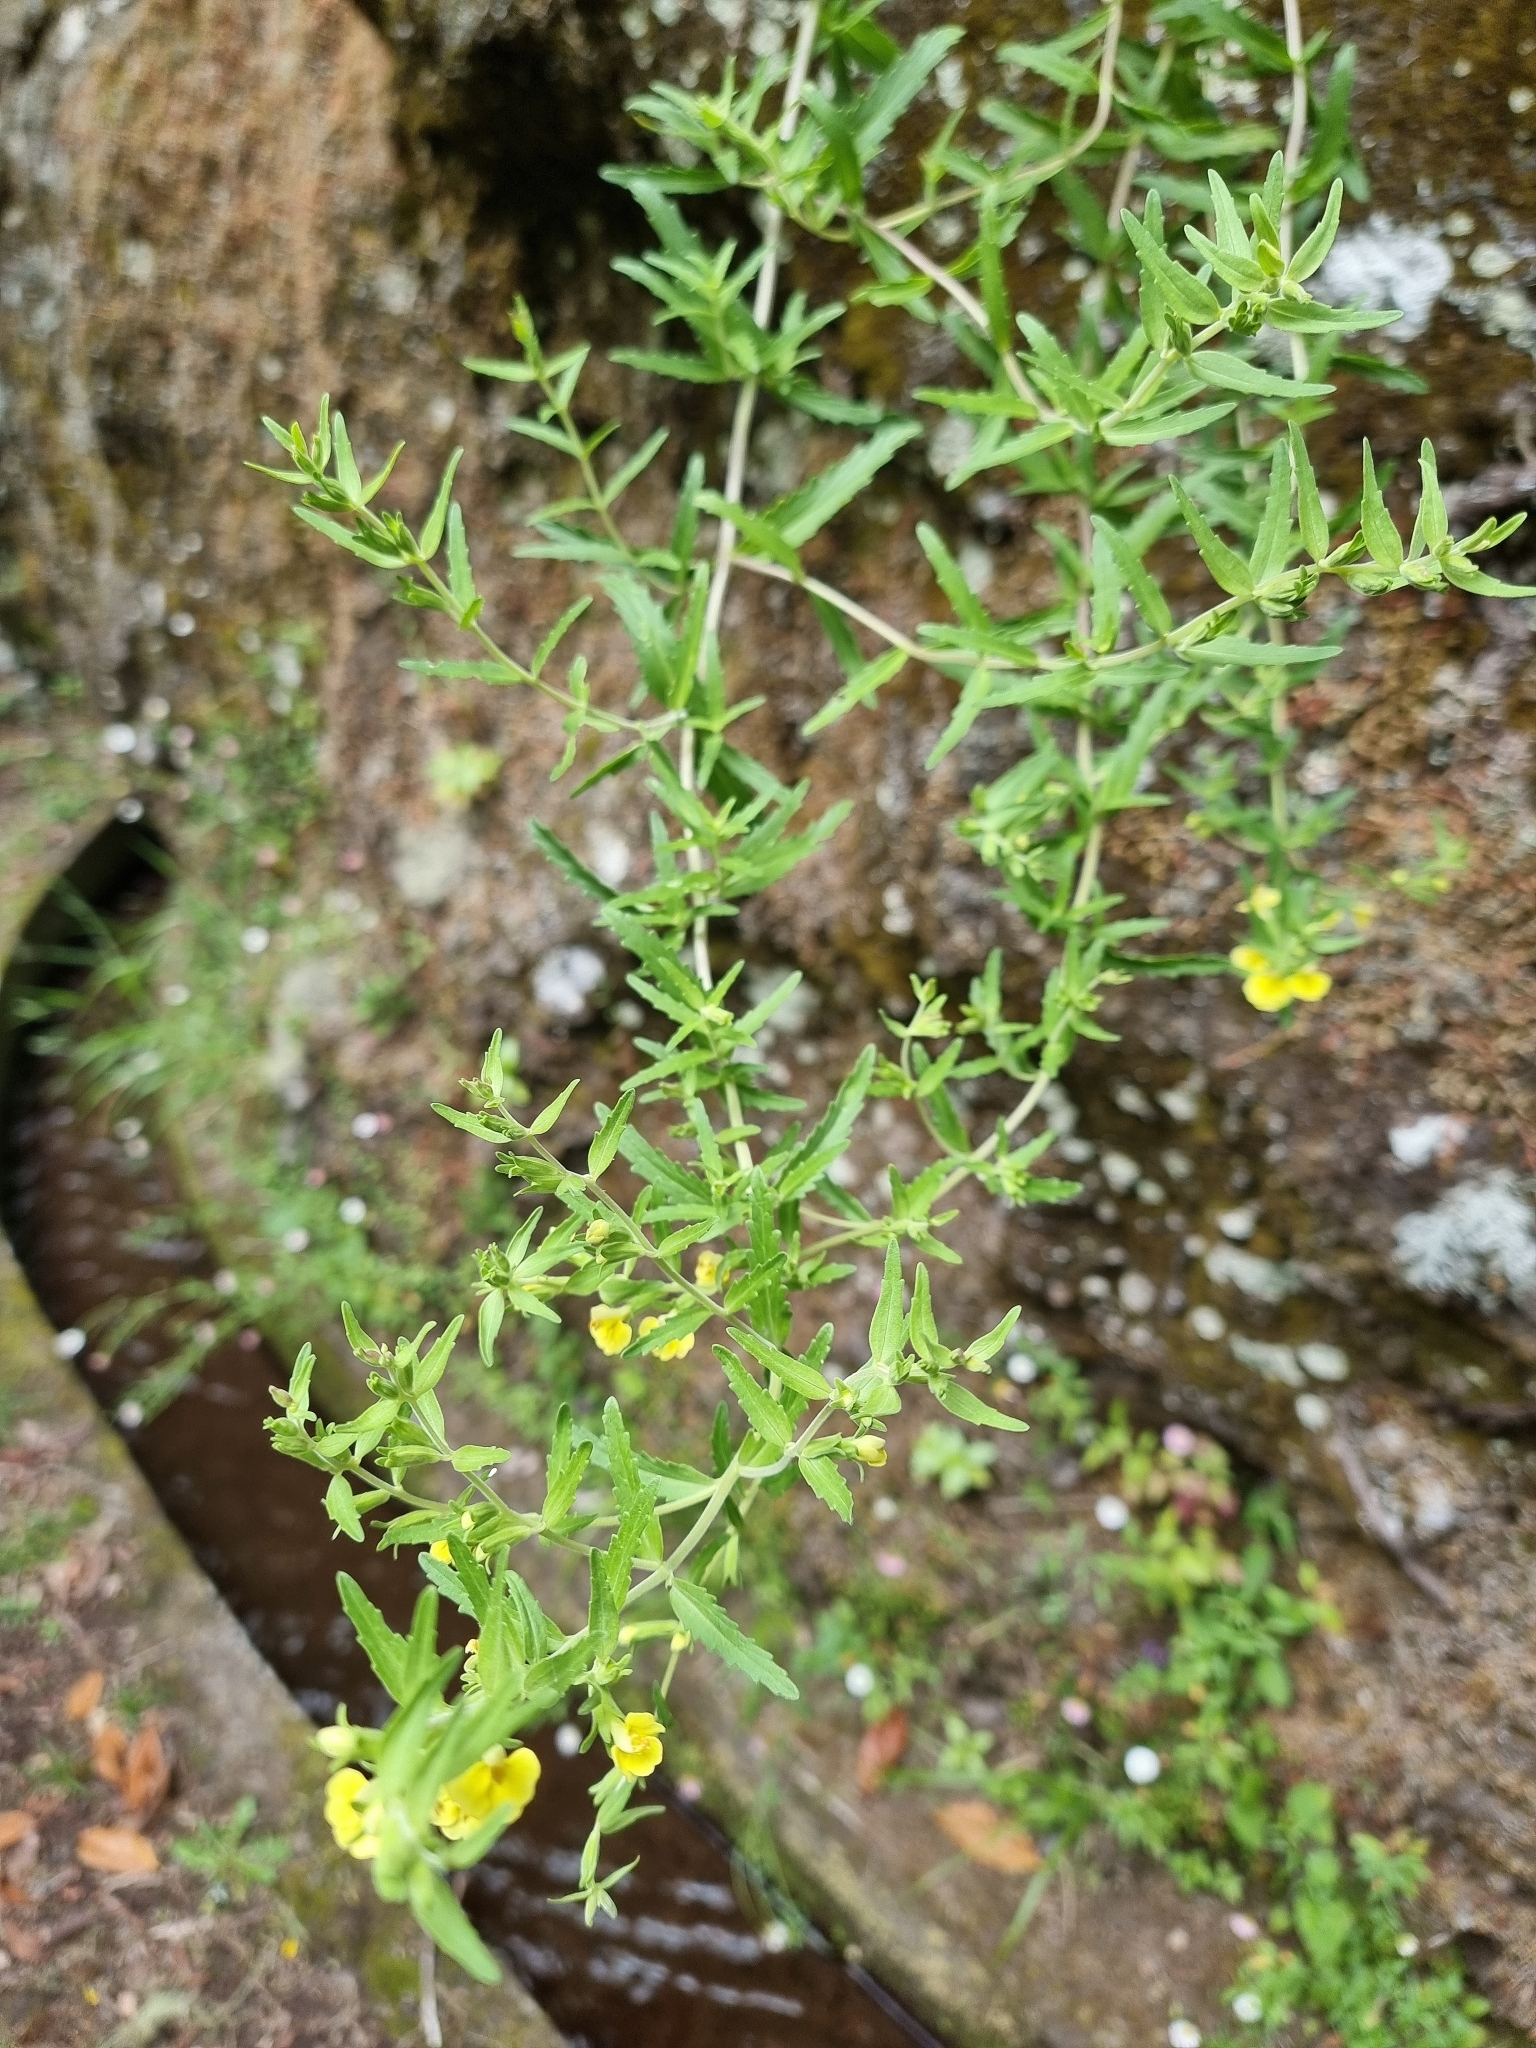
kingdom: Plantae
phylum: Tracheophyta
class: Magnoliopsida
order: Lamiales
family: Orobanchaceae
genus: Odontites
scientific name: Odontites hollianus
